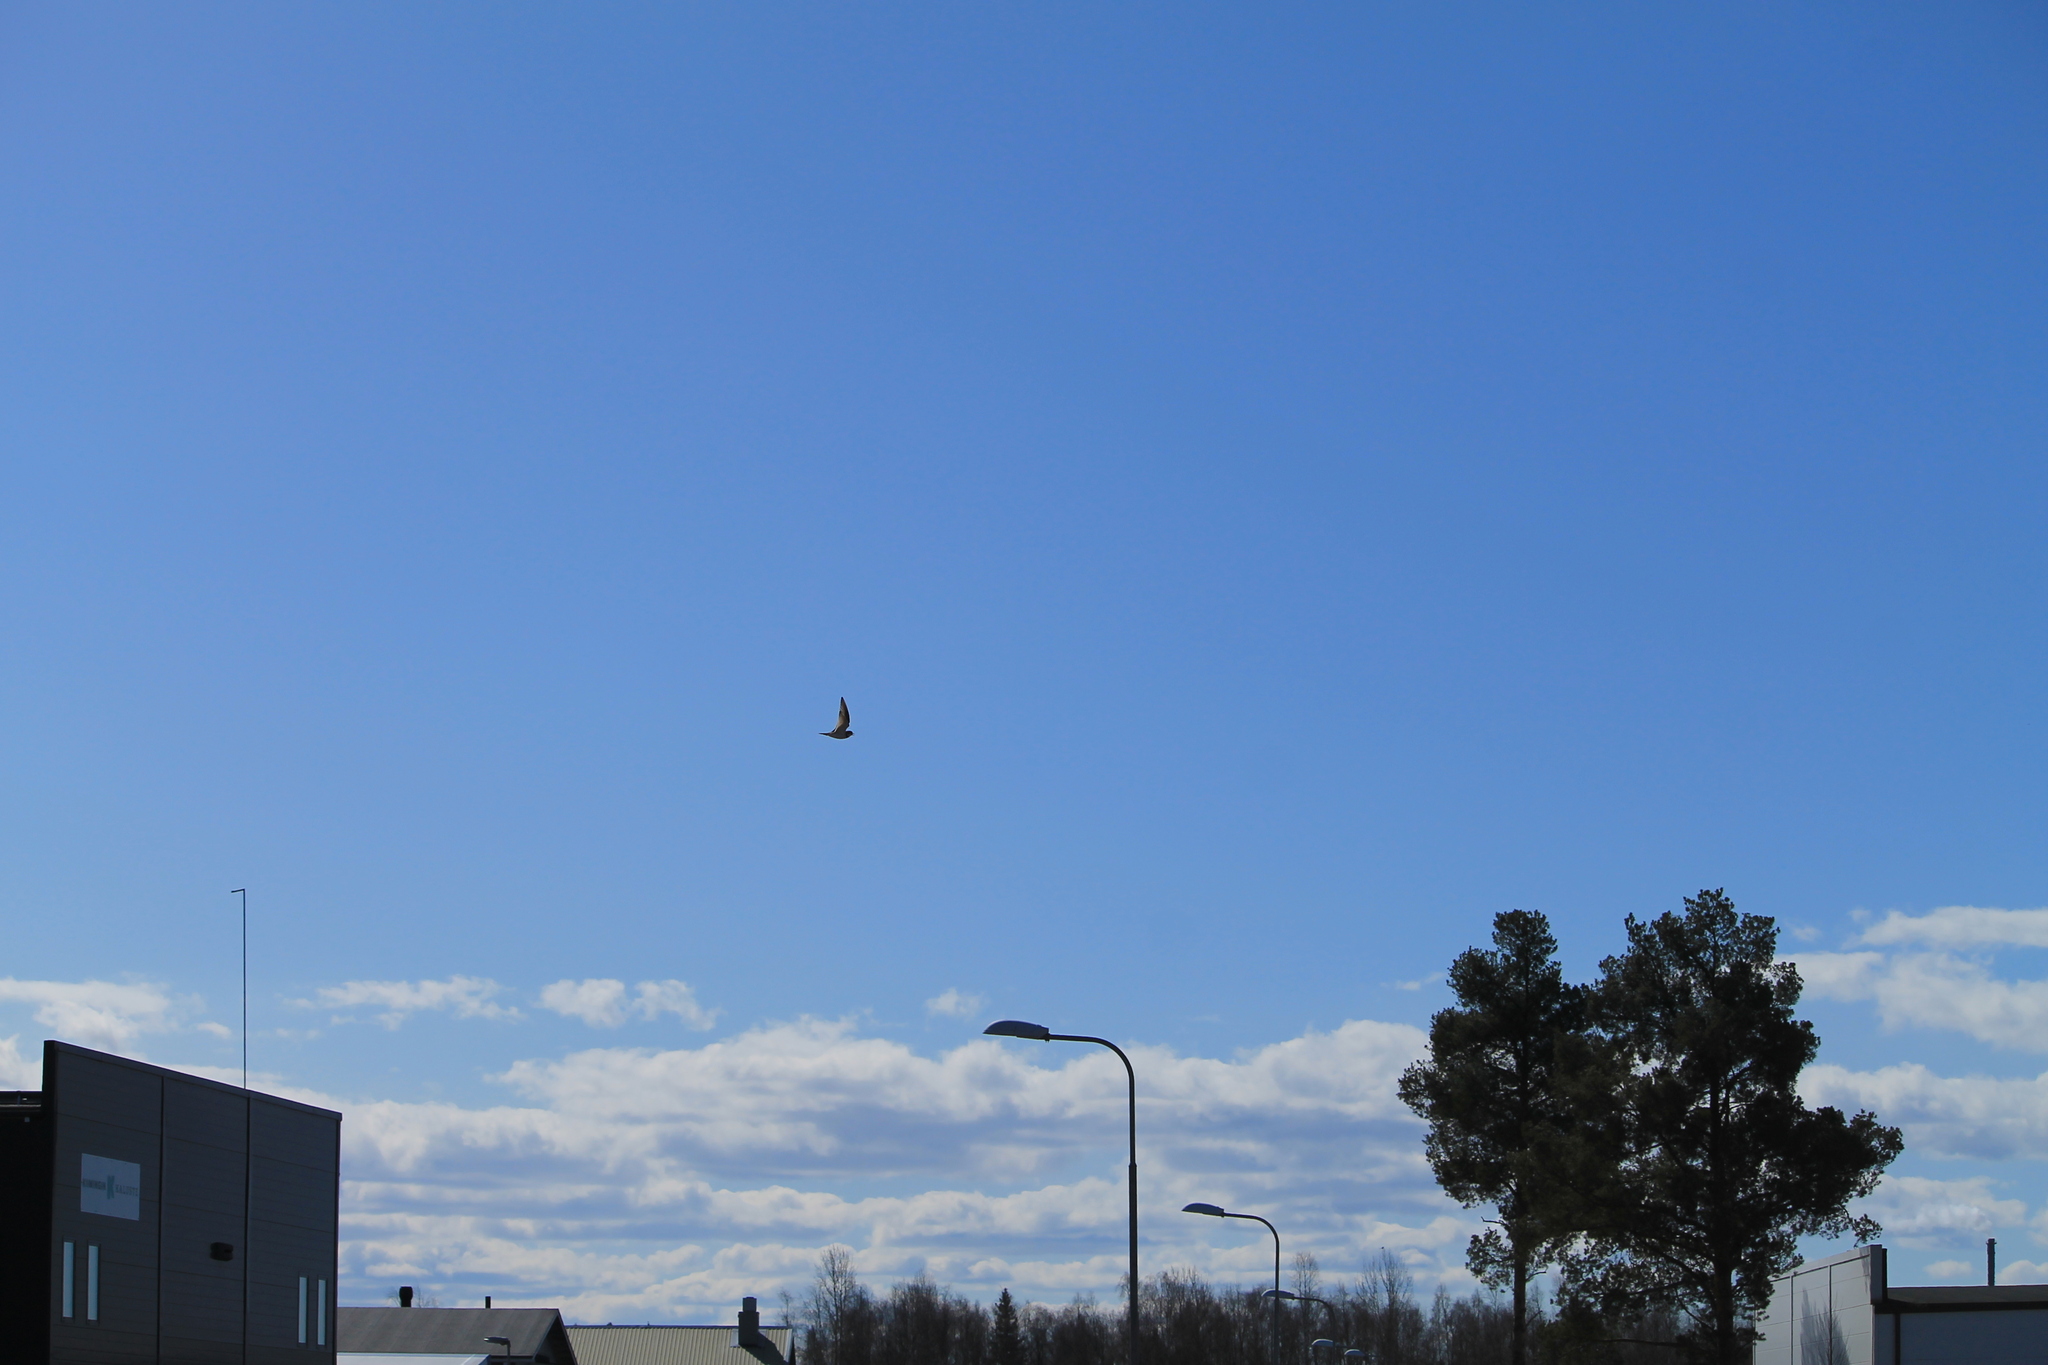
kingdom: Animalia
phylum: Chordata
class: Aves
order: Charadriiformes
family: Charadriidae
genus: Charadrius
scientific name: Charadrius dubius
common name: Little ringed plover
